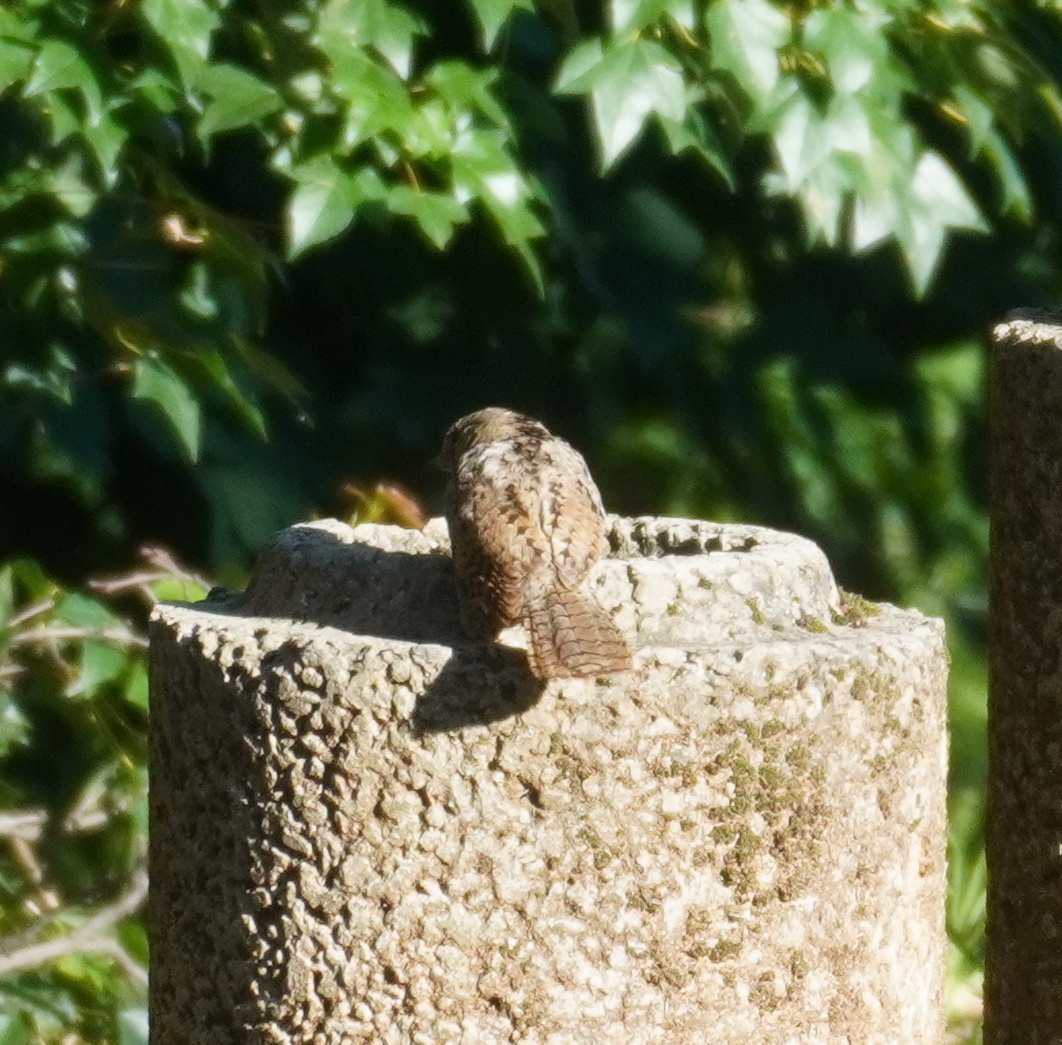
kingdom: Animalia
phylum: Chordata
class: Aves
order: Piciformes
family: Picidae
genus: Jynx
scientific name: Jynx ruficollis
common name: Red-throated wryneck
